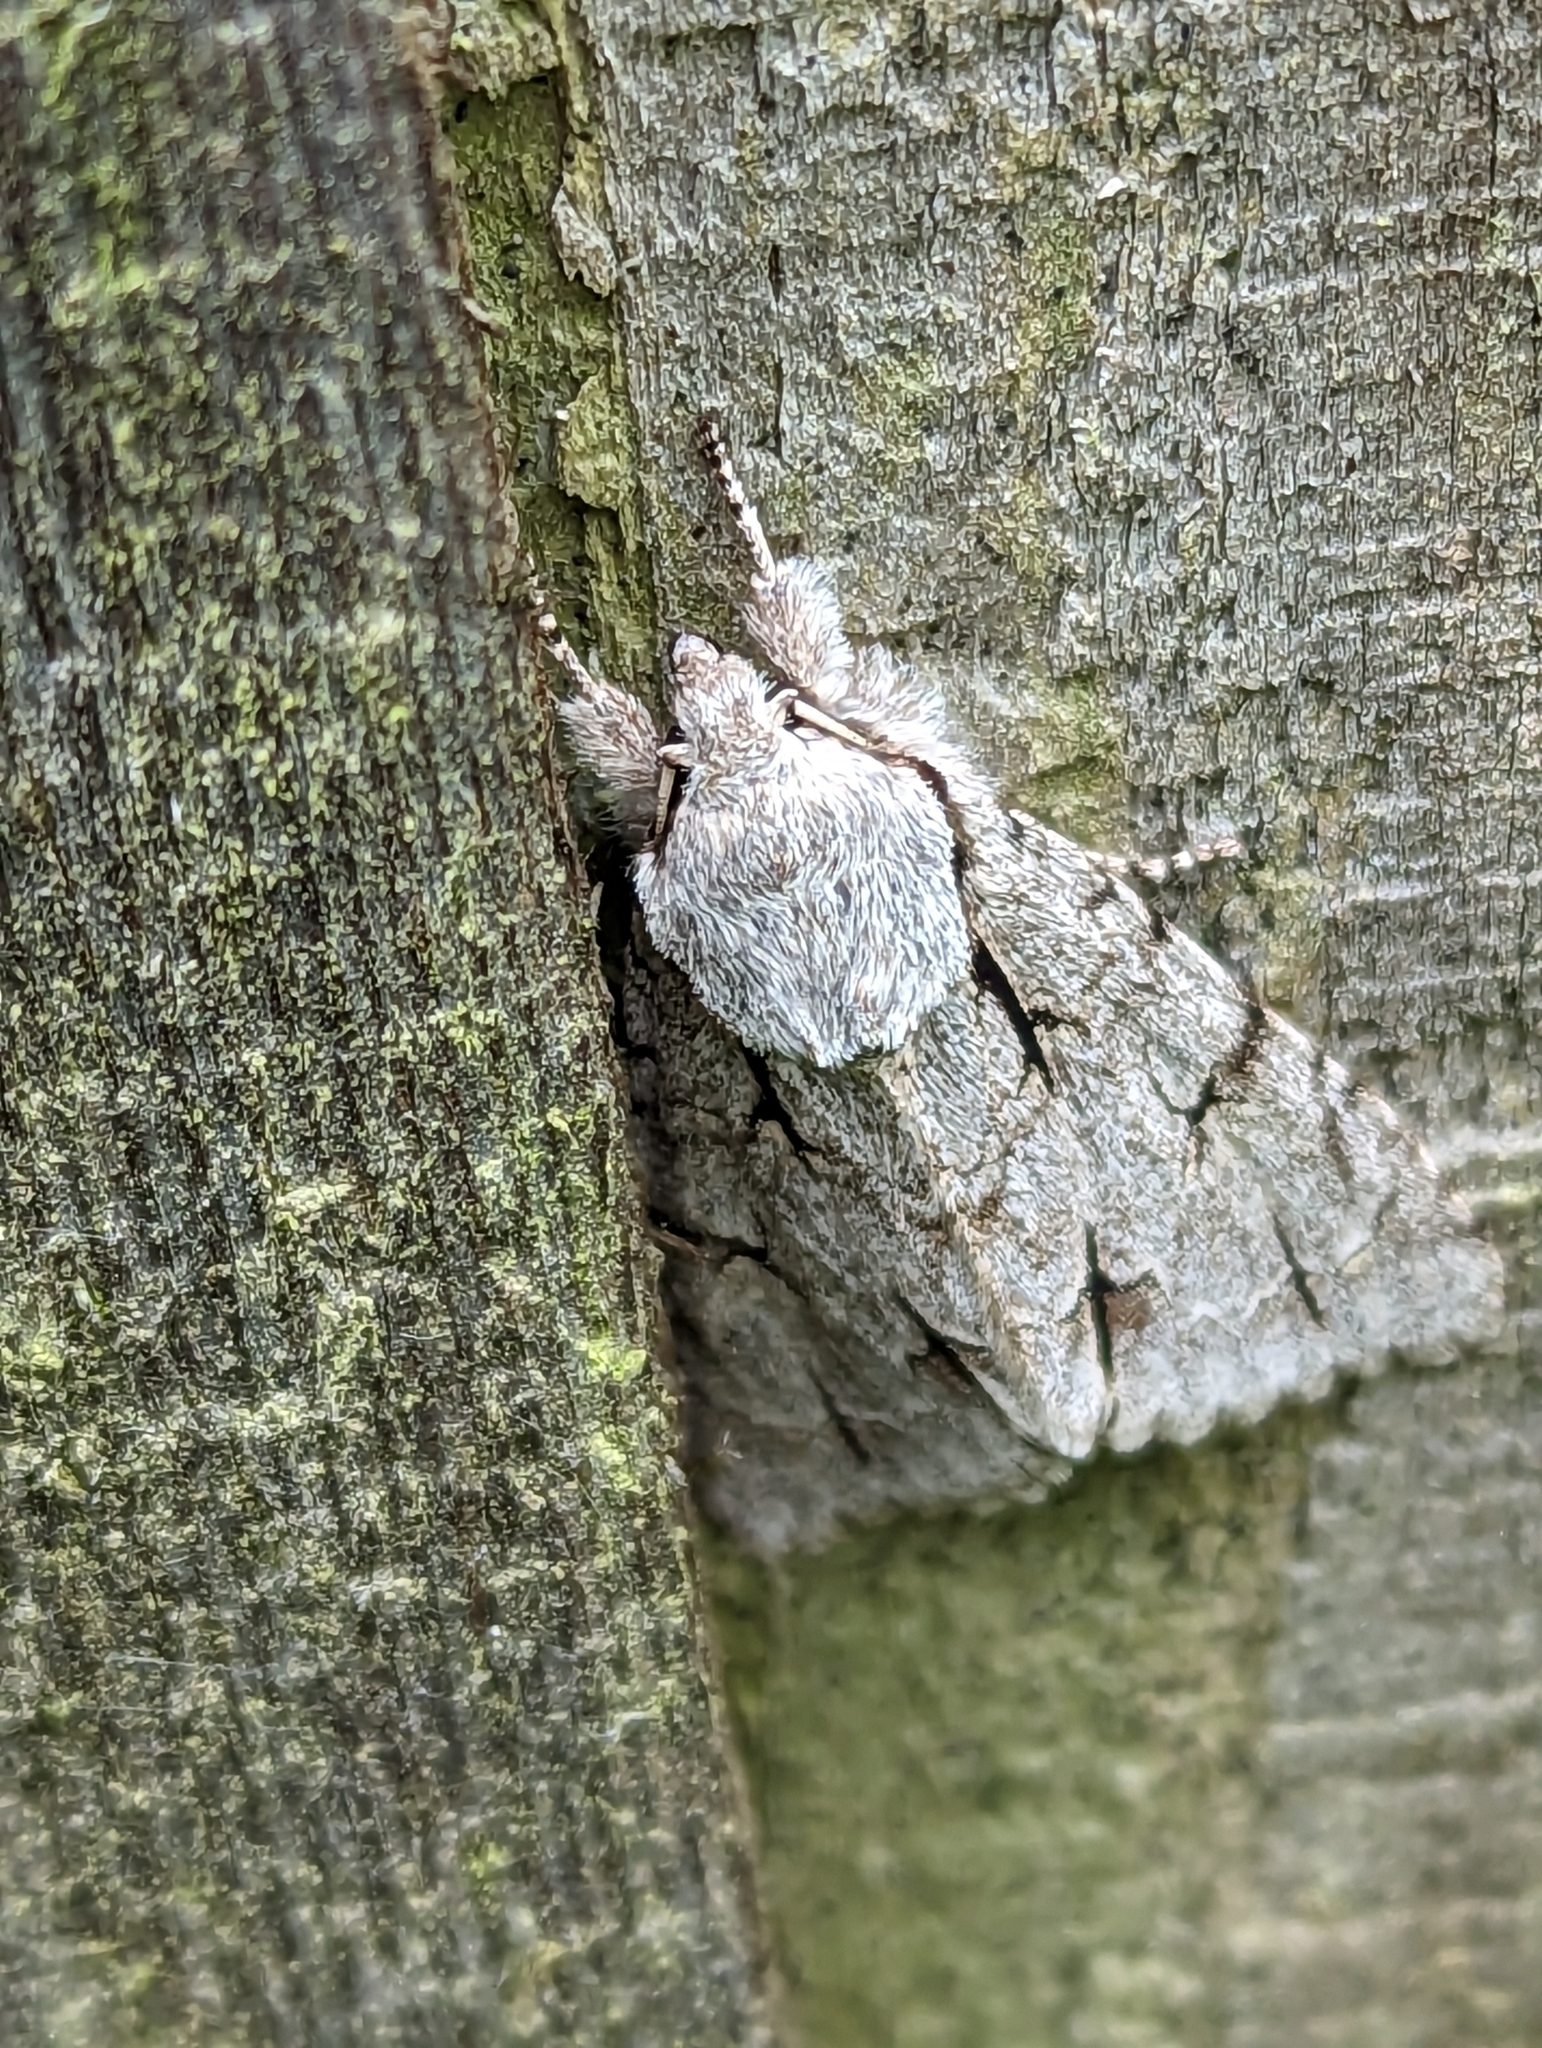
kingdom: Animalia
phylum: Arthropoda
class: Insecta
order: Lepidoptera
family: Noctuidae
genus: Acronicta
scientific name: Acronicta
